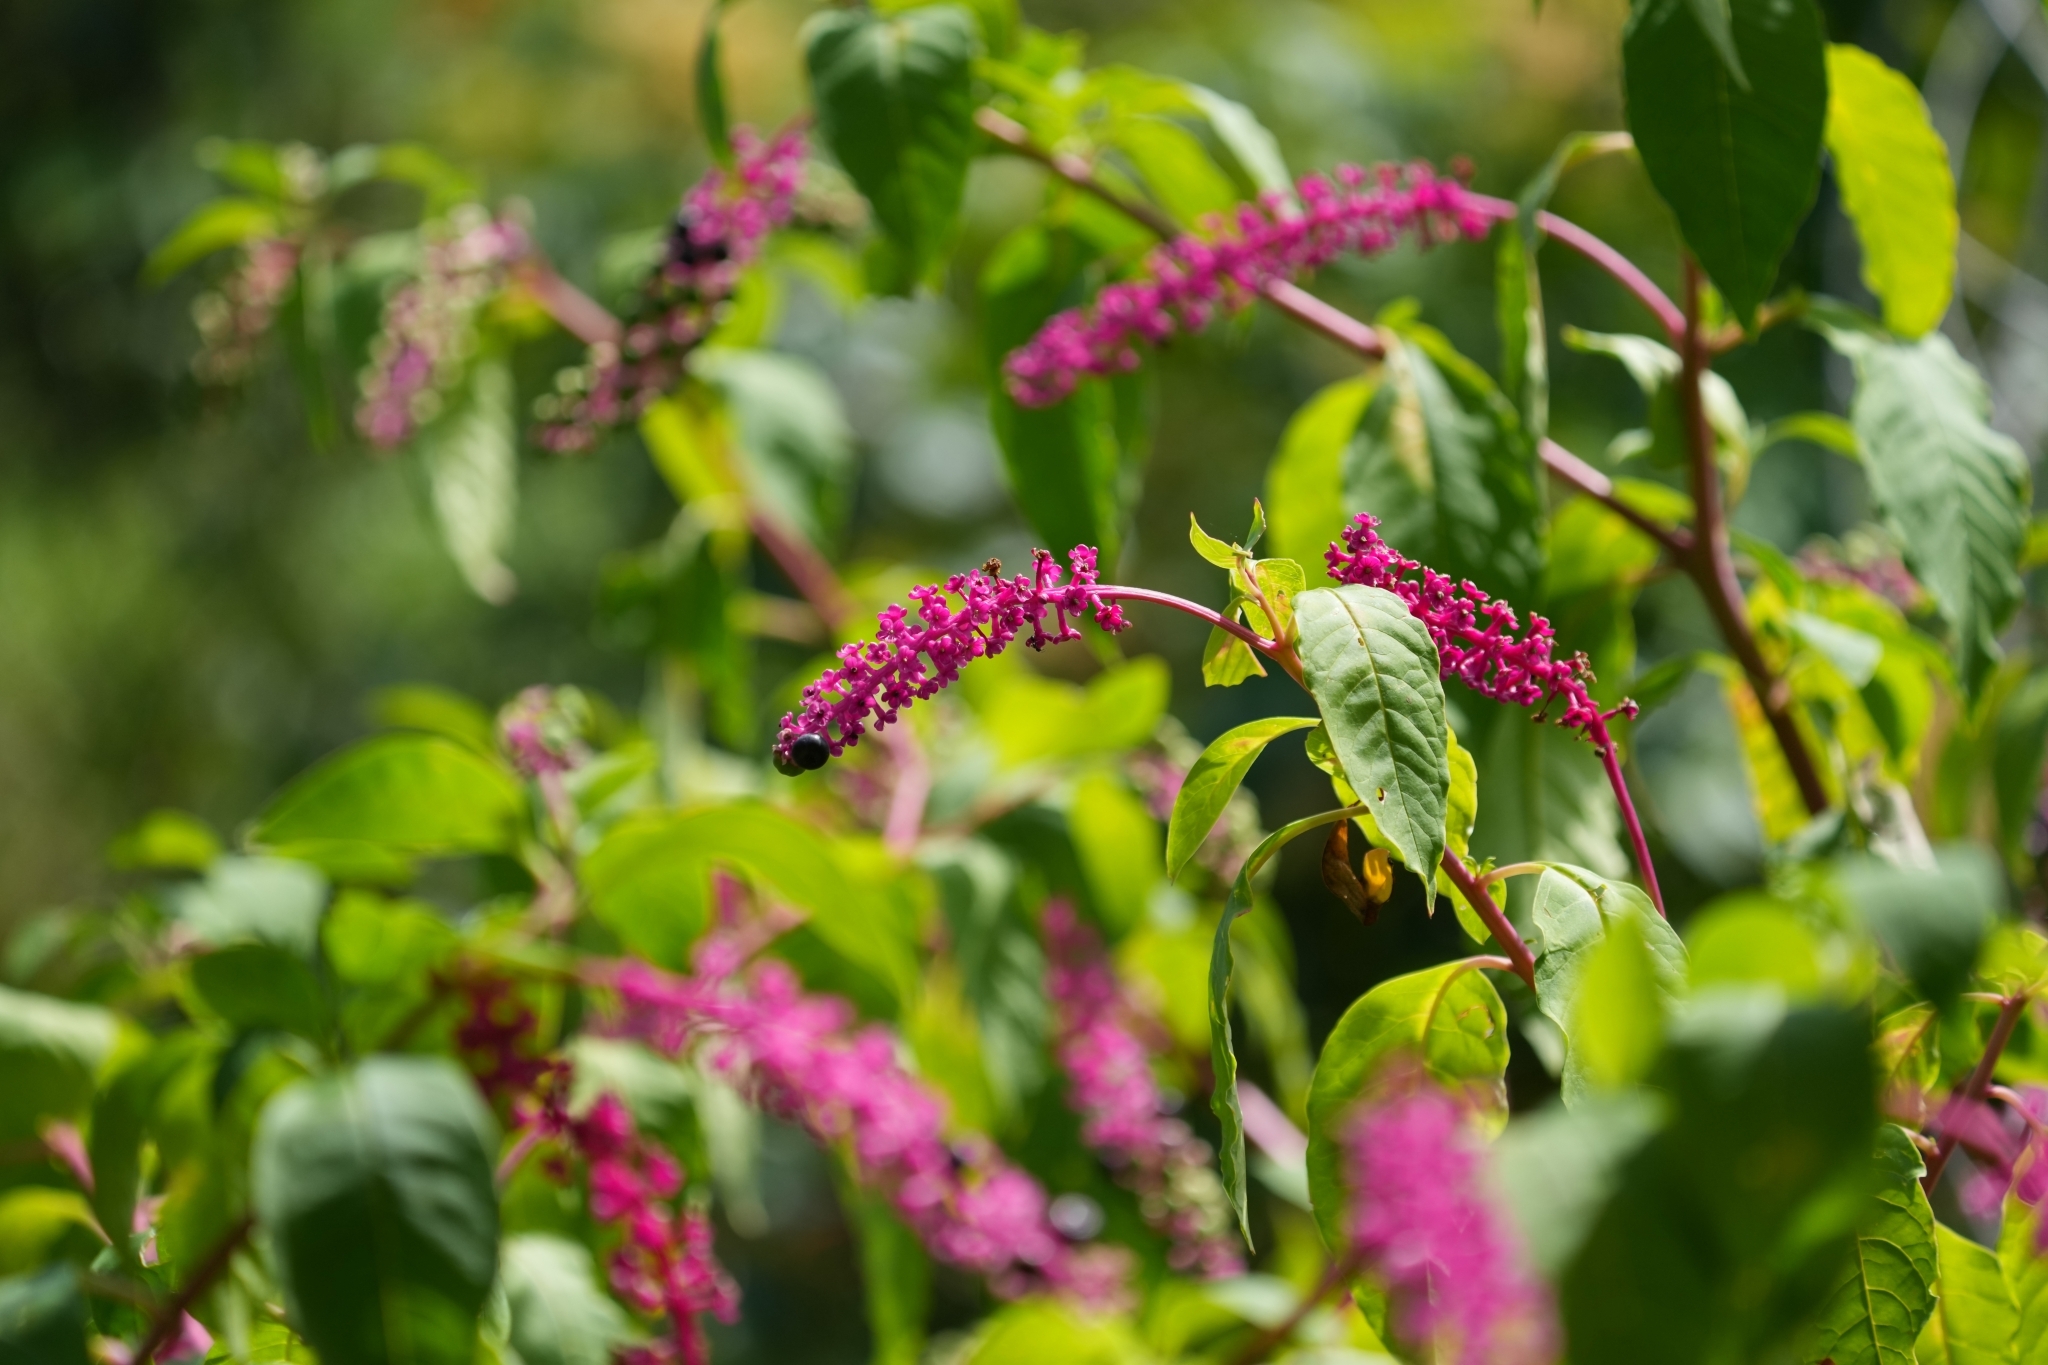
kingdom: Plantae
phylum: Tracheophyta
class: Magnoliopsida
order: Caryophyllales
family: Phytolaccaceae
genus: Phytolacca
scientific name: Phytolacca americana
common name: American pokeweed
